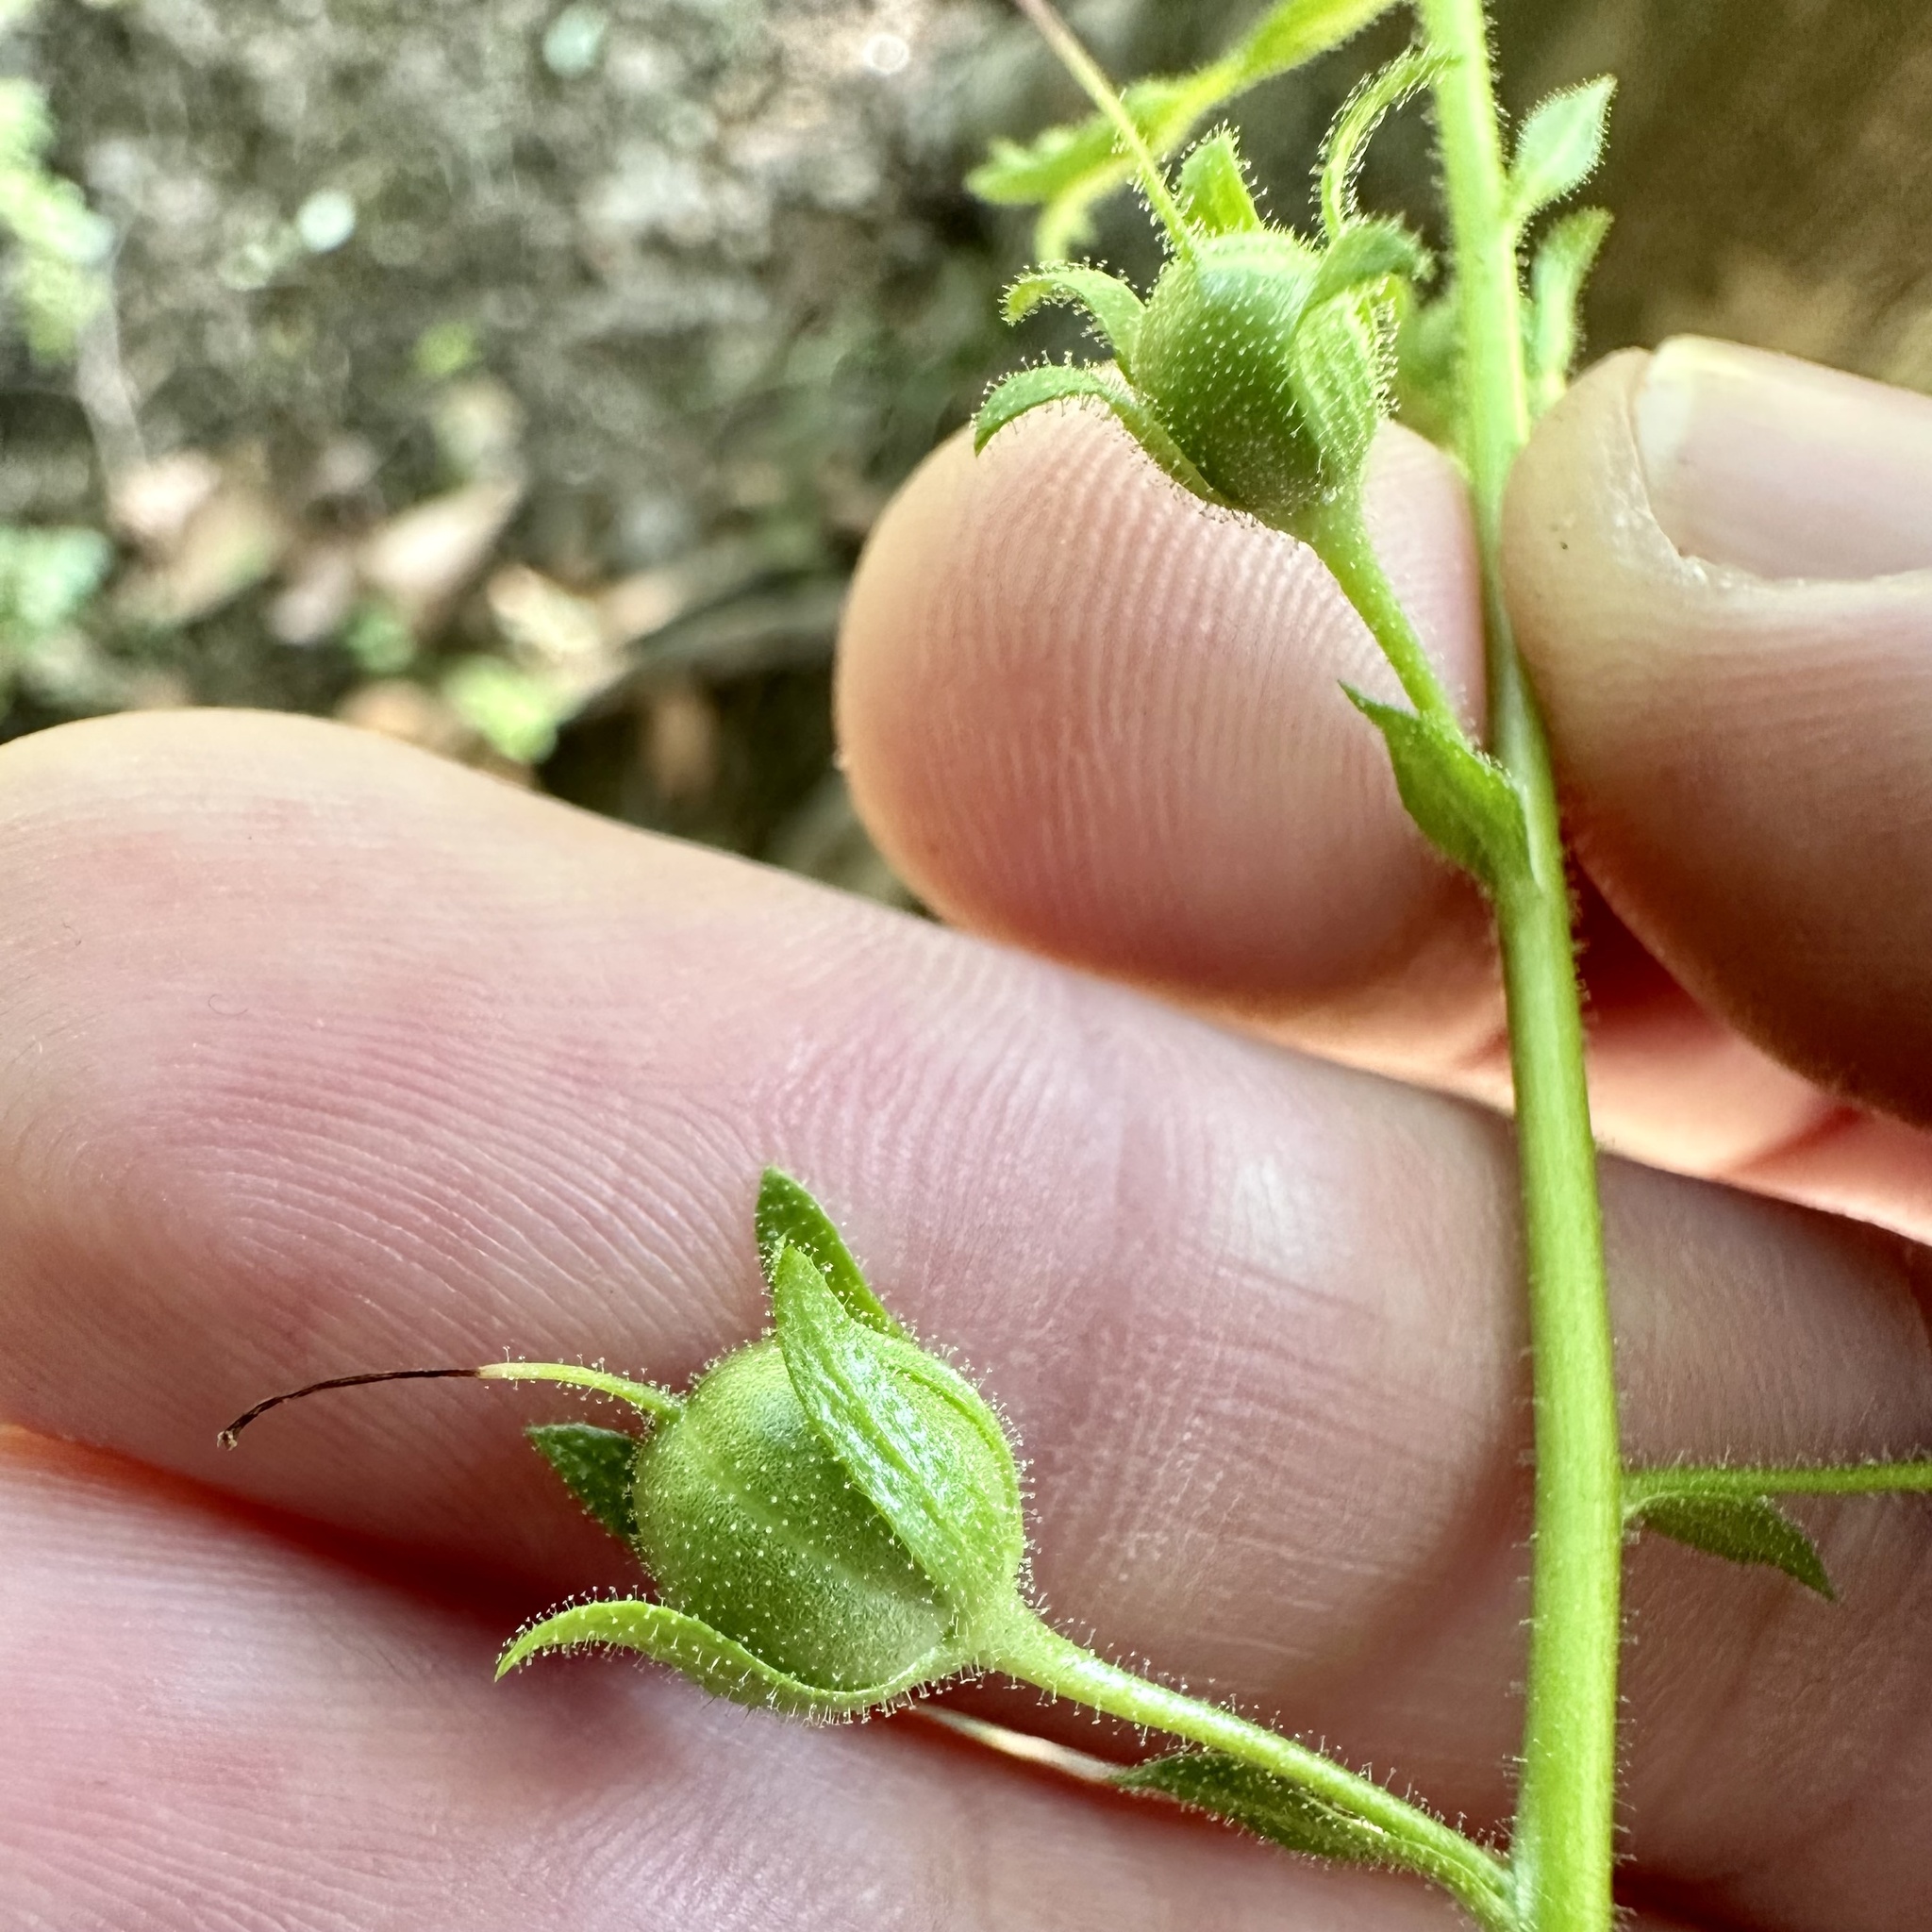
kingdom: Plantae
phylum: Tracheophyta
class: Magnoliopsida
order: Lamiales
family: Scrophulariaceae
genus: Verbascum
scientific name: Verbascum blattaria
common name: Moth mullein
